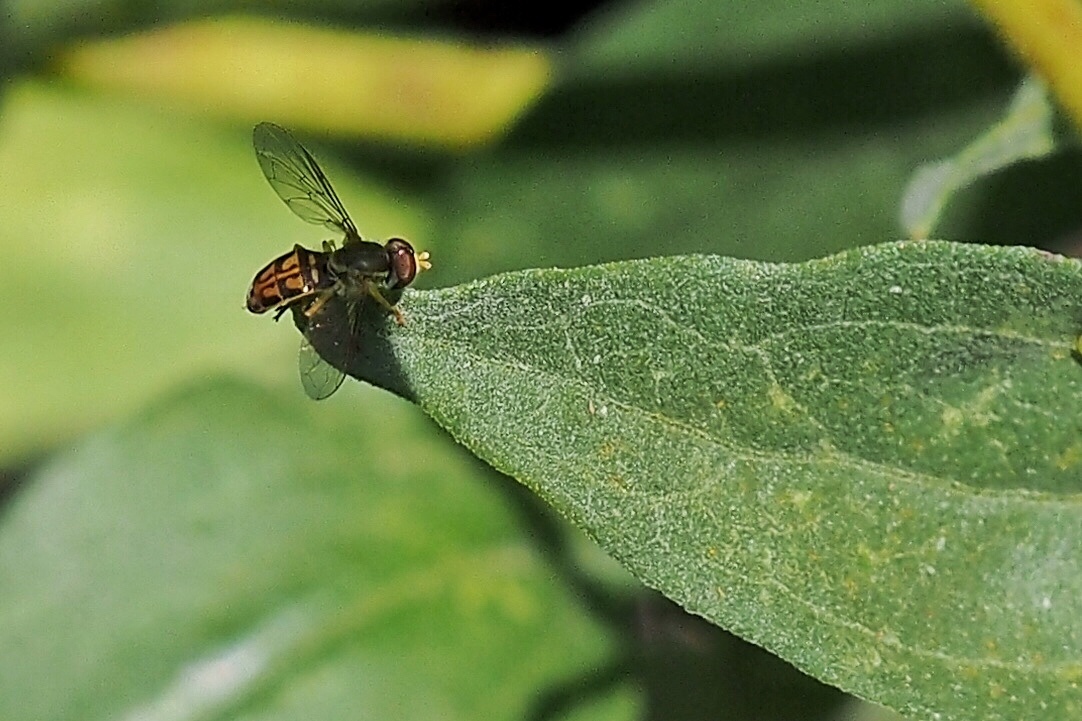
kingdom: Animalia
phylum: Arthropoda
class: Insecta
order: Diptera
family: Syrphidae
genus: Toxomerus
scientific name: Toxomerus marginatus
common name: Syrphid fly
